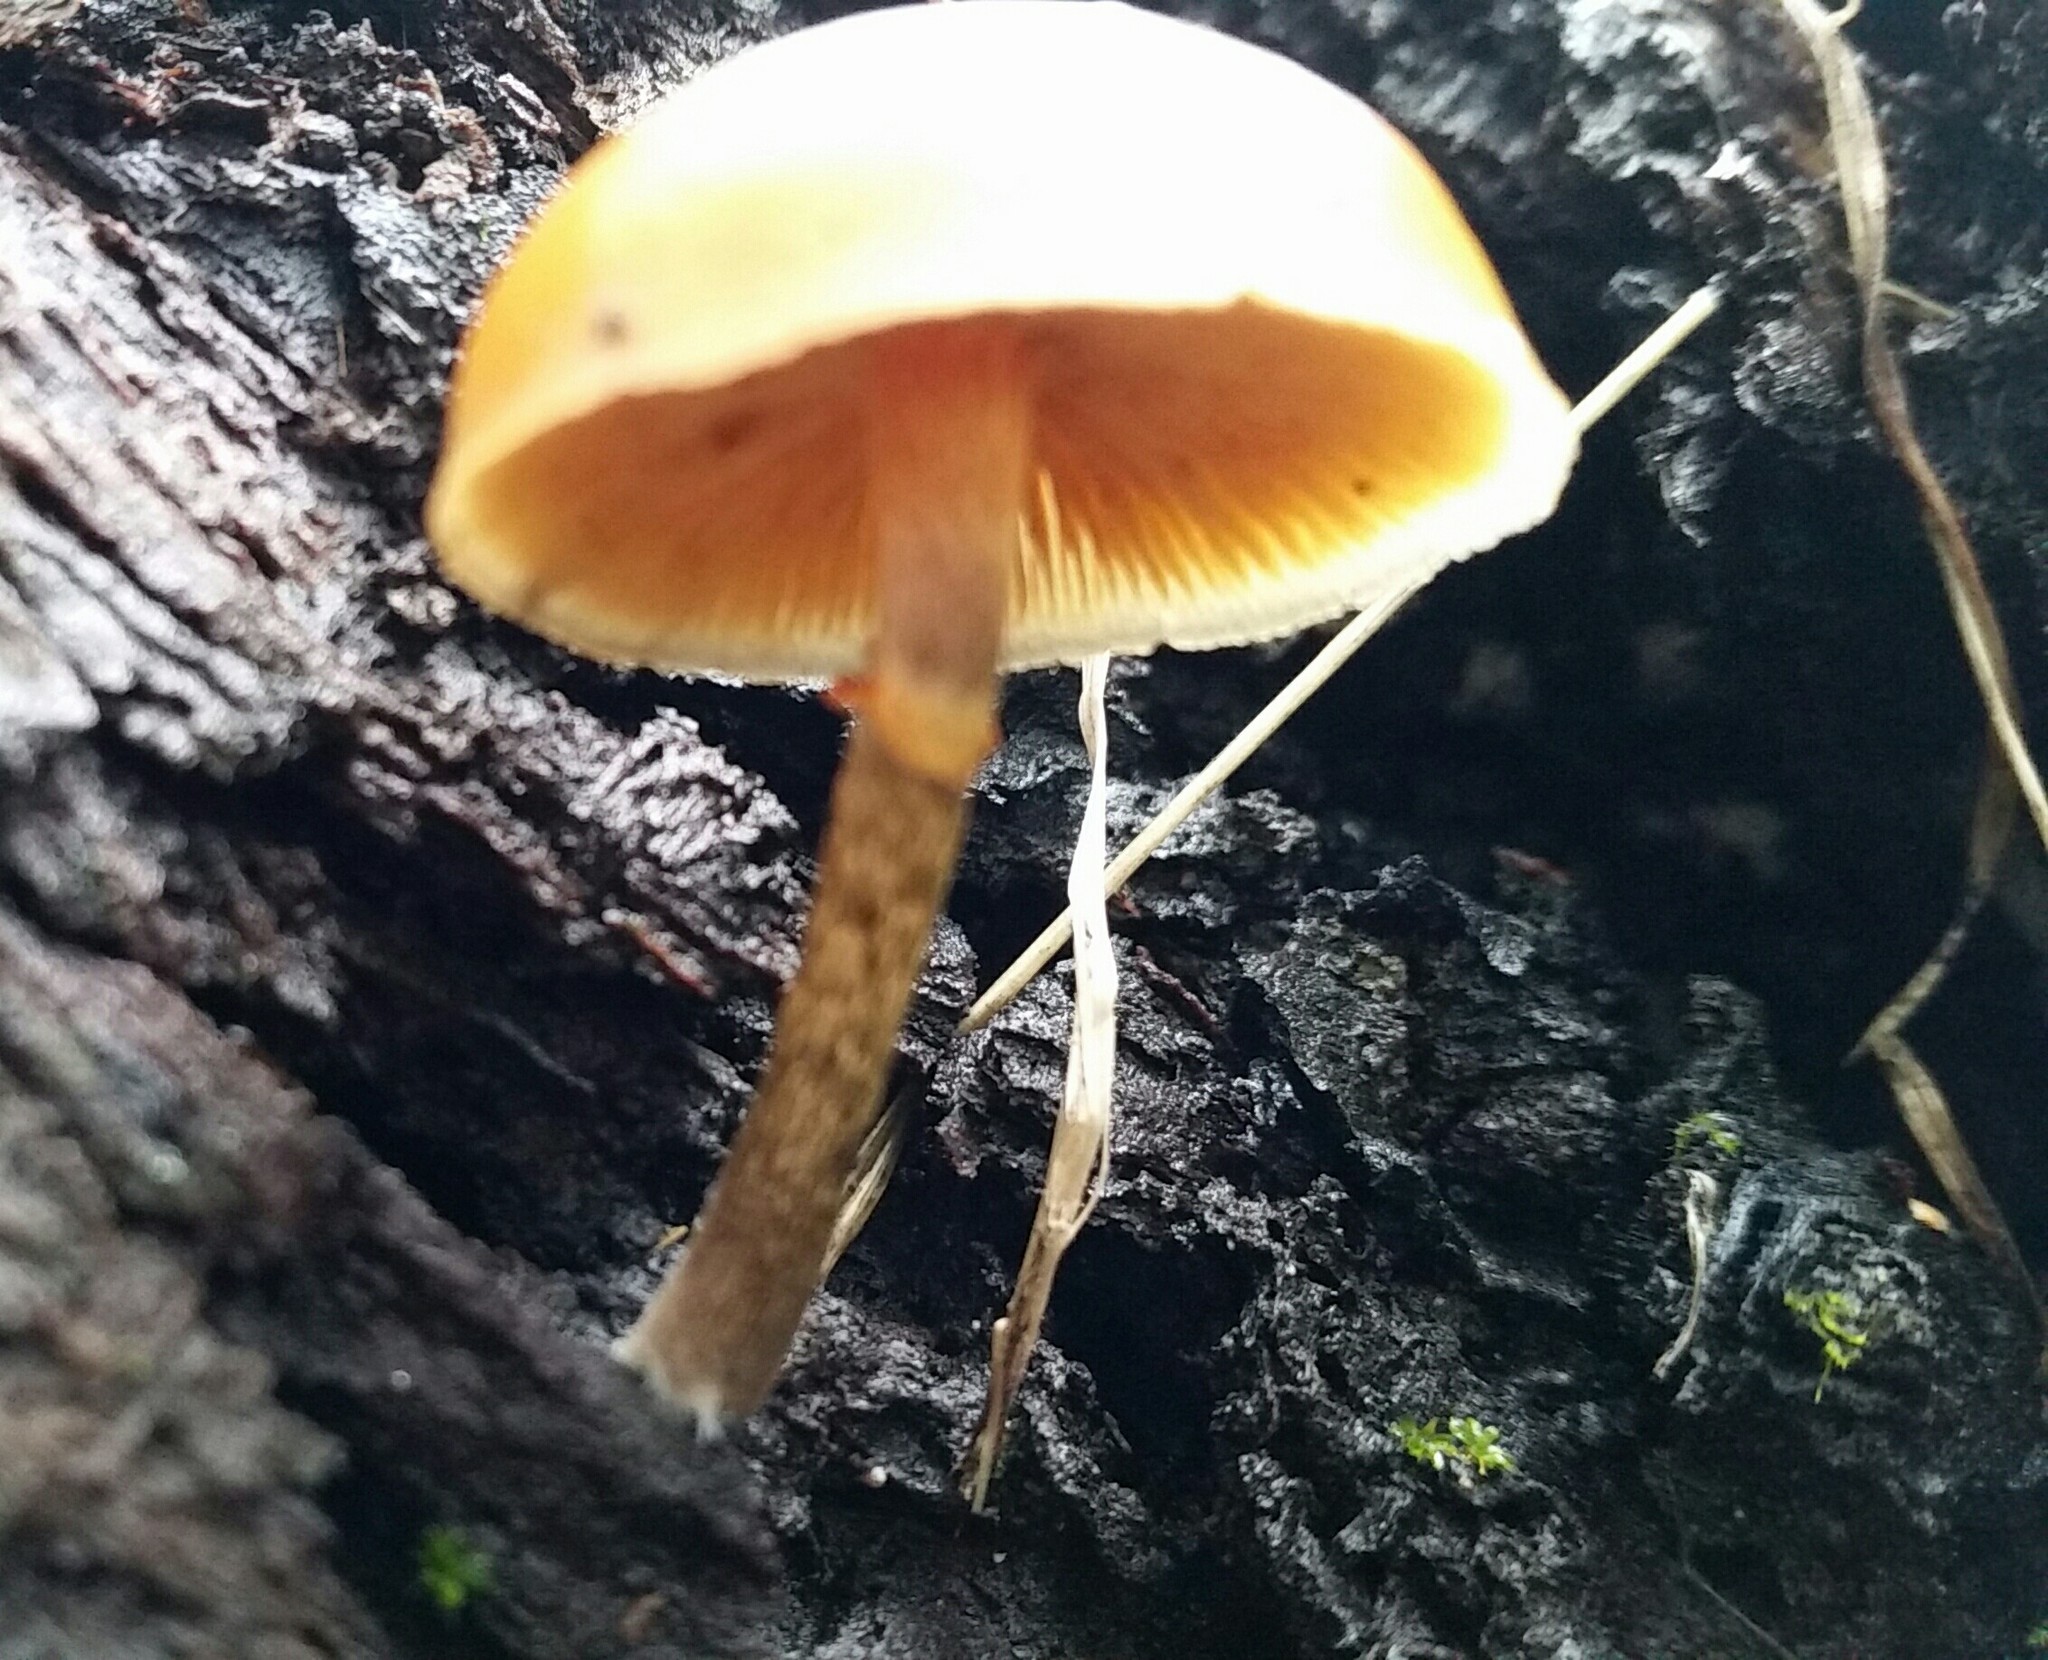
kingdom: Fungi
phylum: Basidiomycota
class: Agaricomycetes
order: Agaricales
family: Hymenogastraceae
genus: Galerina
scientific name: Galerina marginata
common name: Funeral bell
